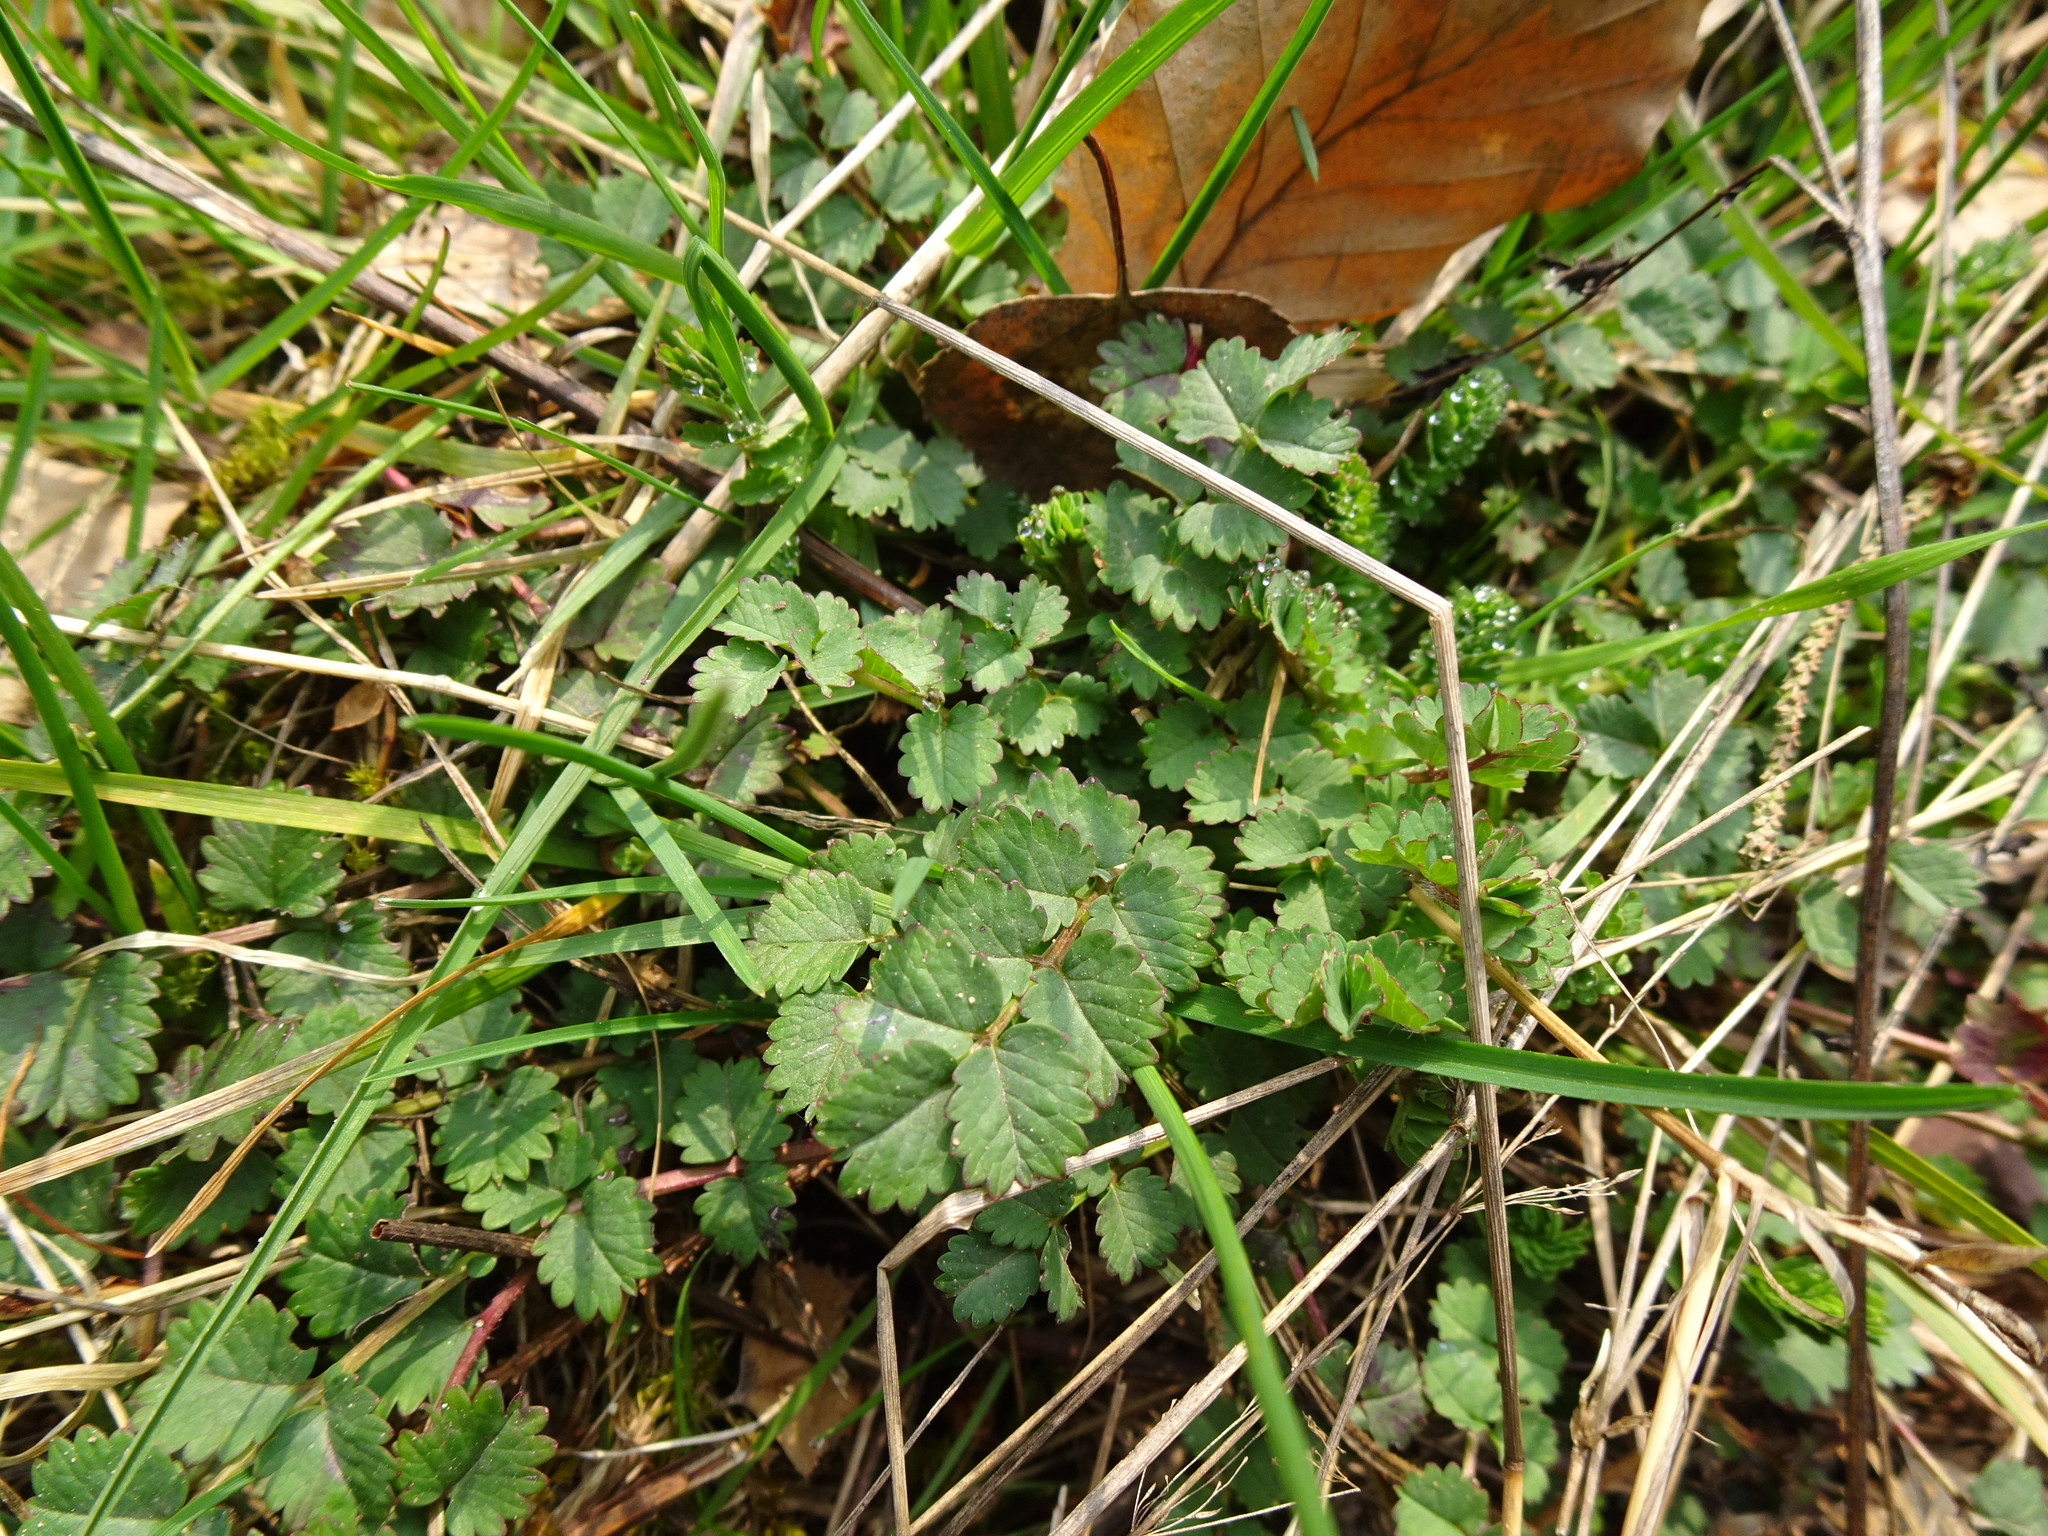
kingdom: Plantae
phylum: Tracheophyta
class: Magnoliopsida
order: Rosales
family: Rosaceae
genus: Poterium
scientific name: Poterium sanguisorba
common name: Salad burnet
